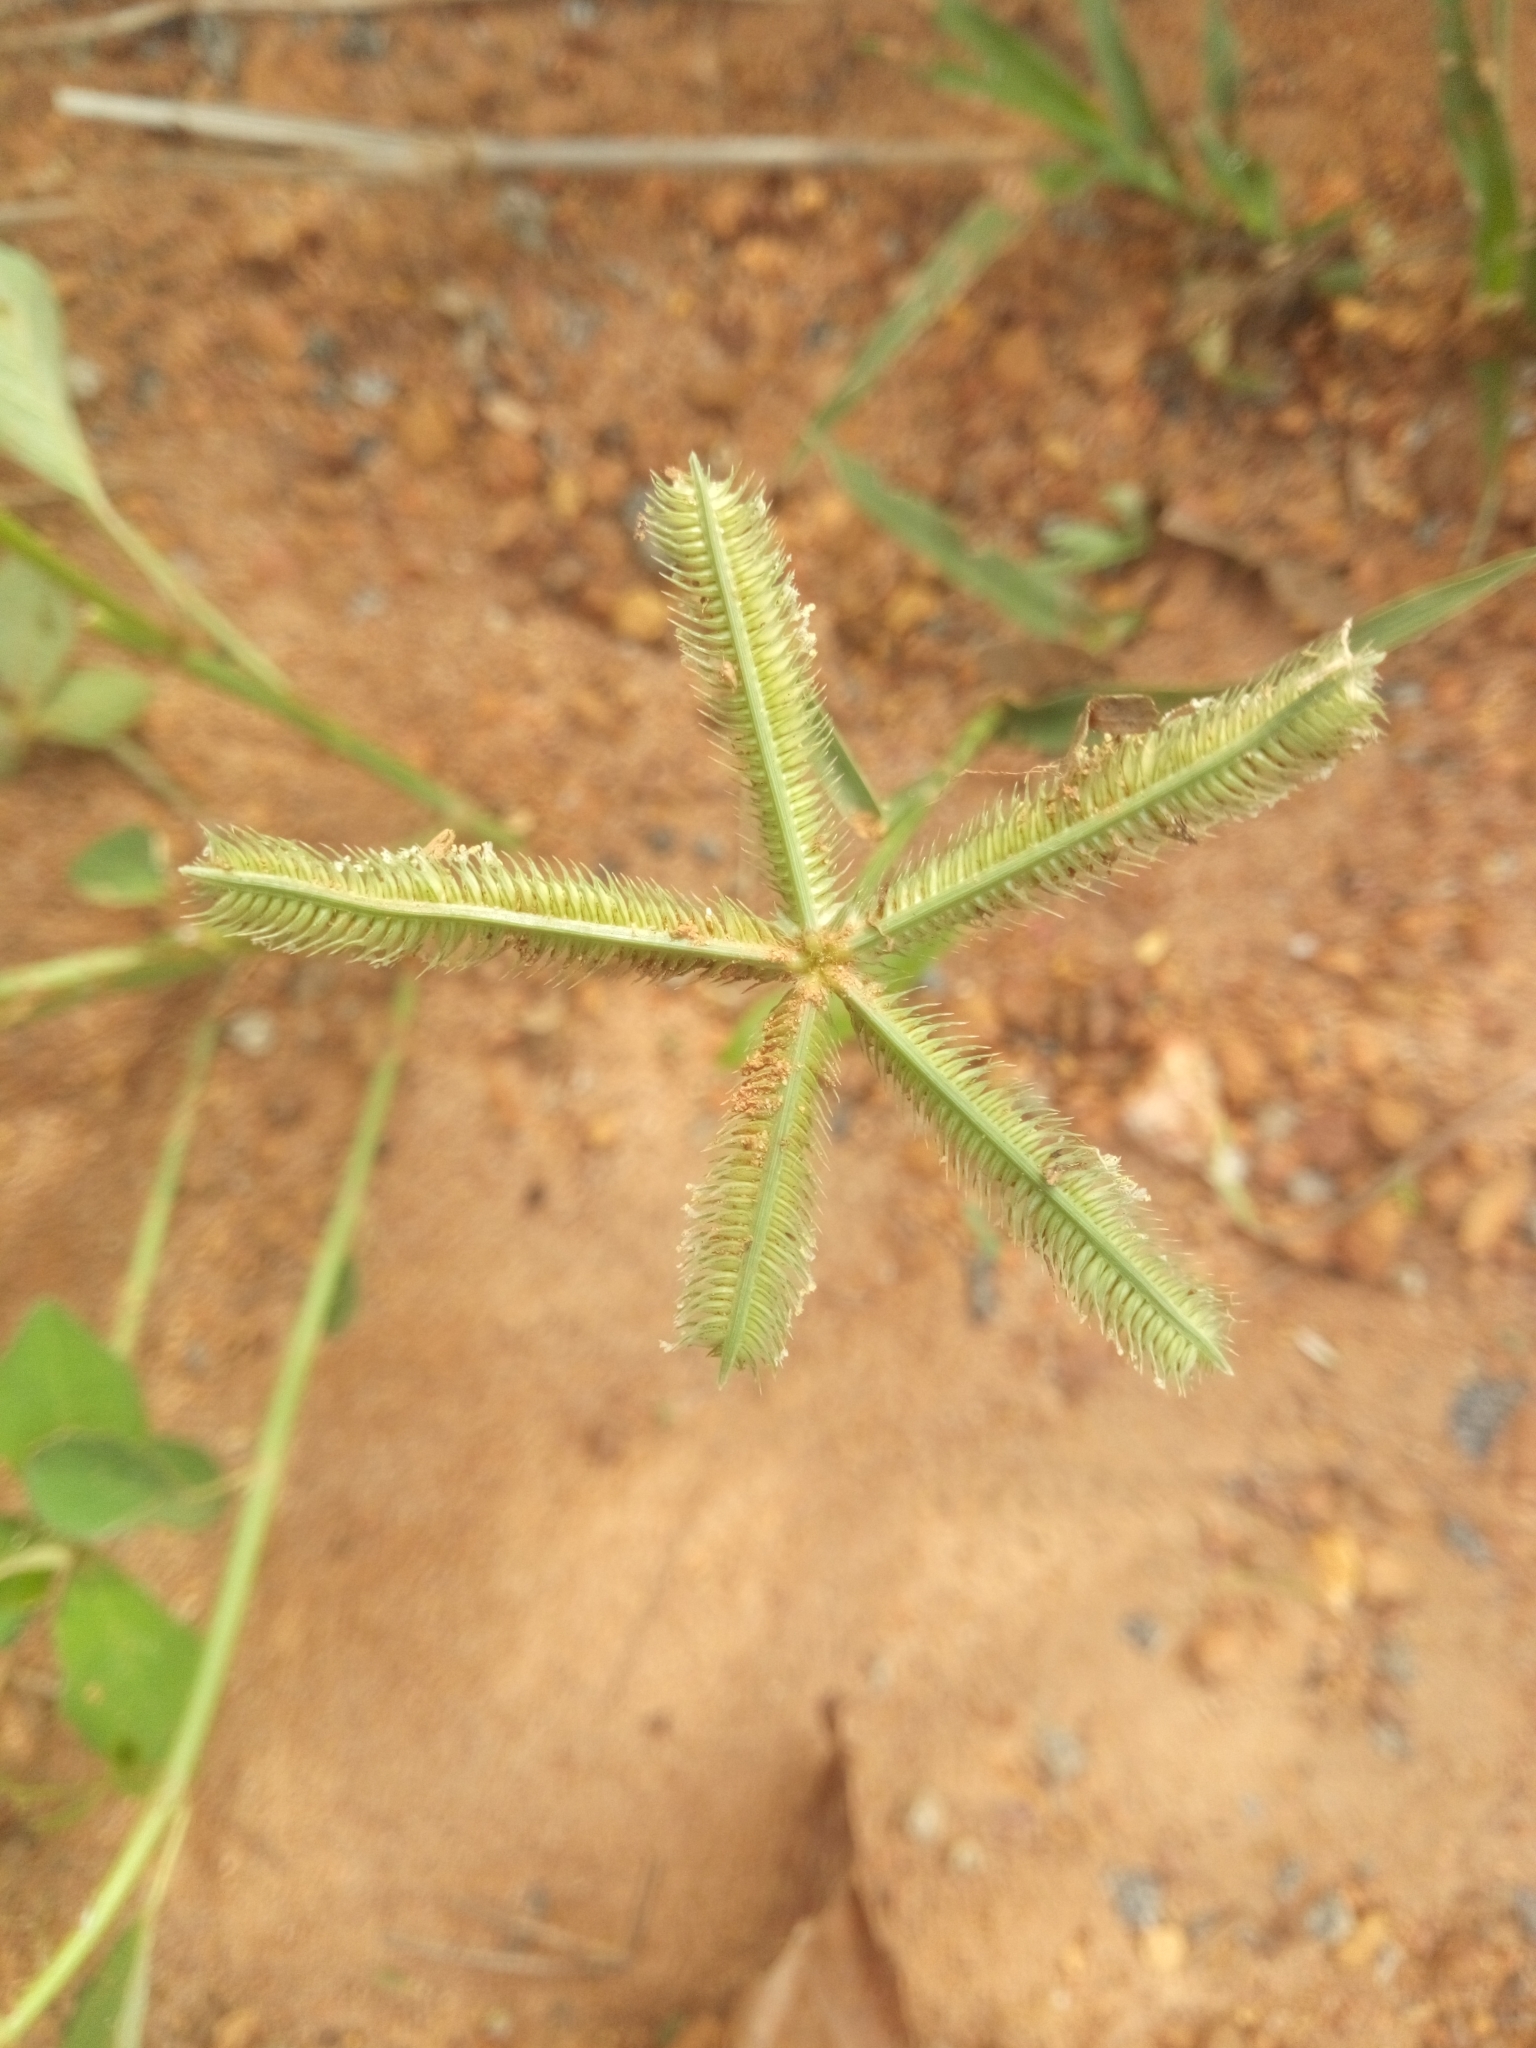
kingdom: Plantae
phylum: Tracheophyta
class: Liliopsida
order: Poales
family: Poaceae
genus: Dactyloctenium
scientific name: Dactyloctenium aegyptium
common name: Egyptian grass
